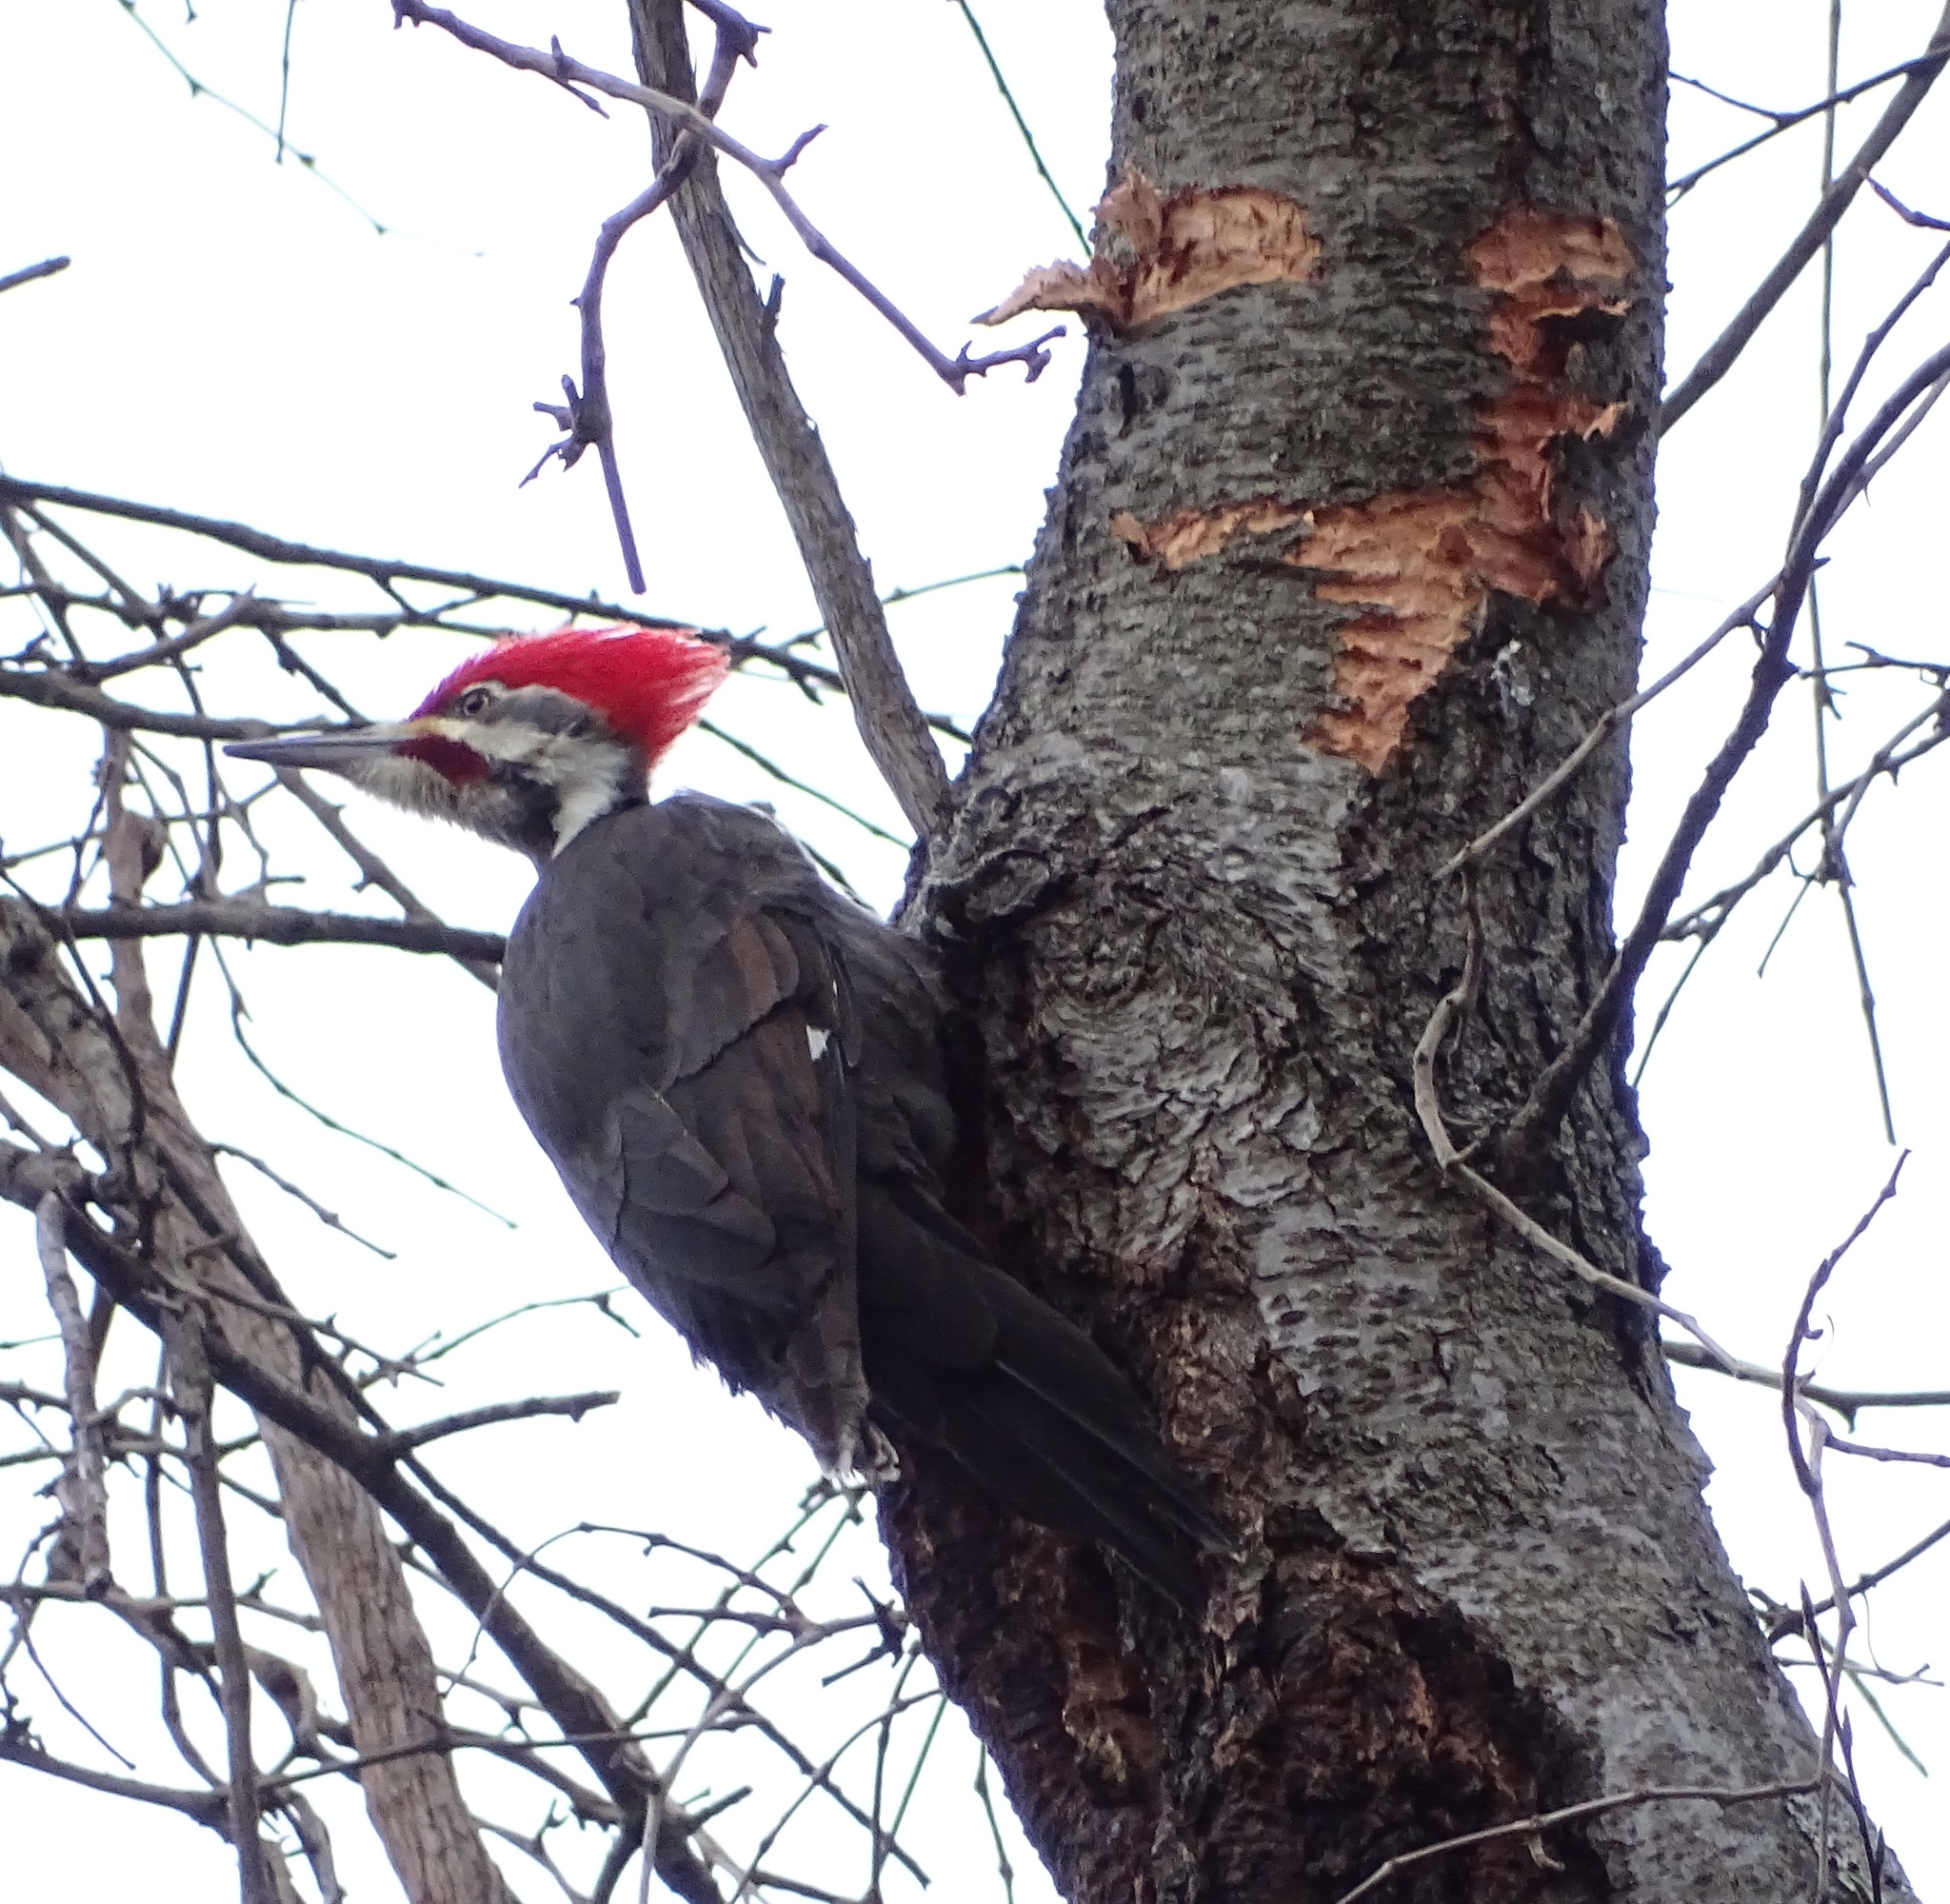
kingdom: Animalia
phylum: Chordata
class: Aves
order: Piciformes
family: Picidae
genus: Dryocopus
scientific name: Dryocopus pileatus
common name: Pileated woodpecker
